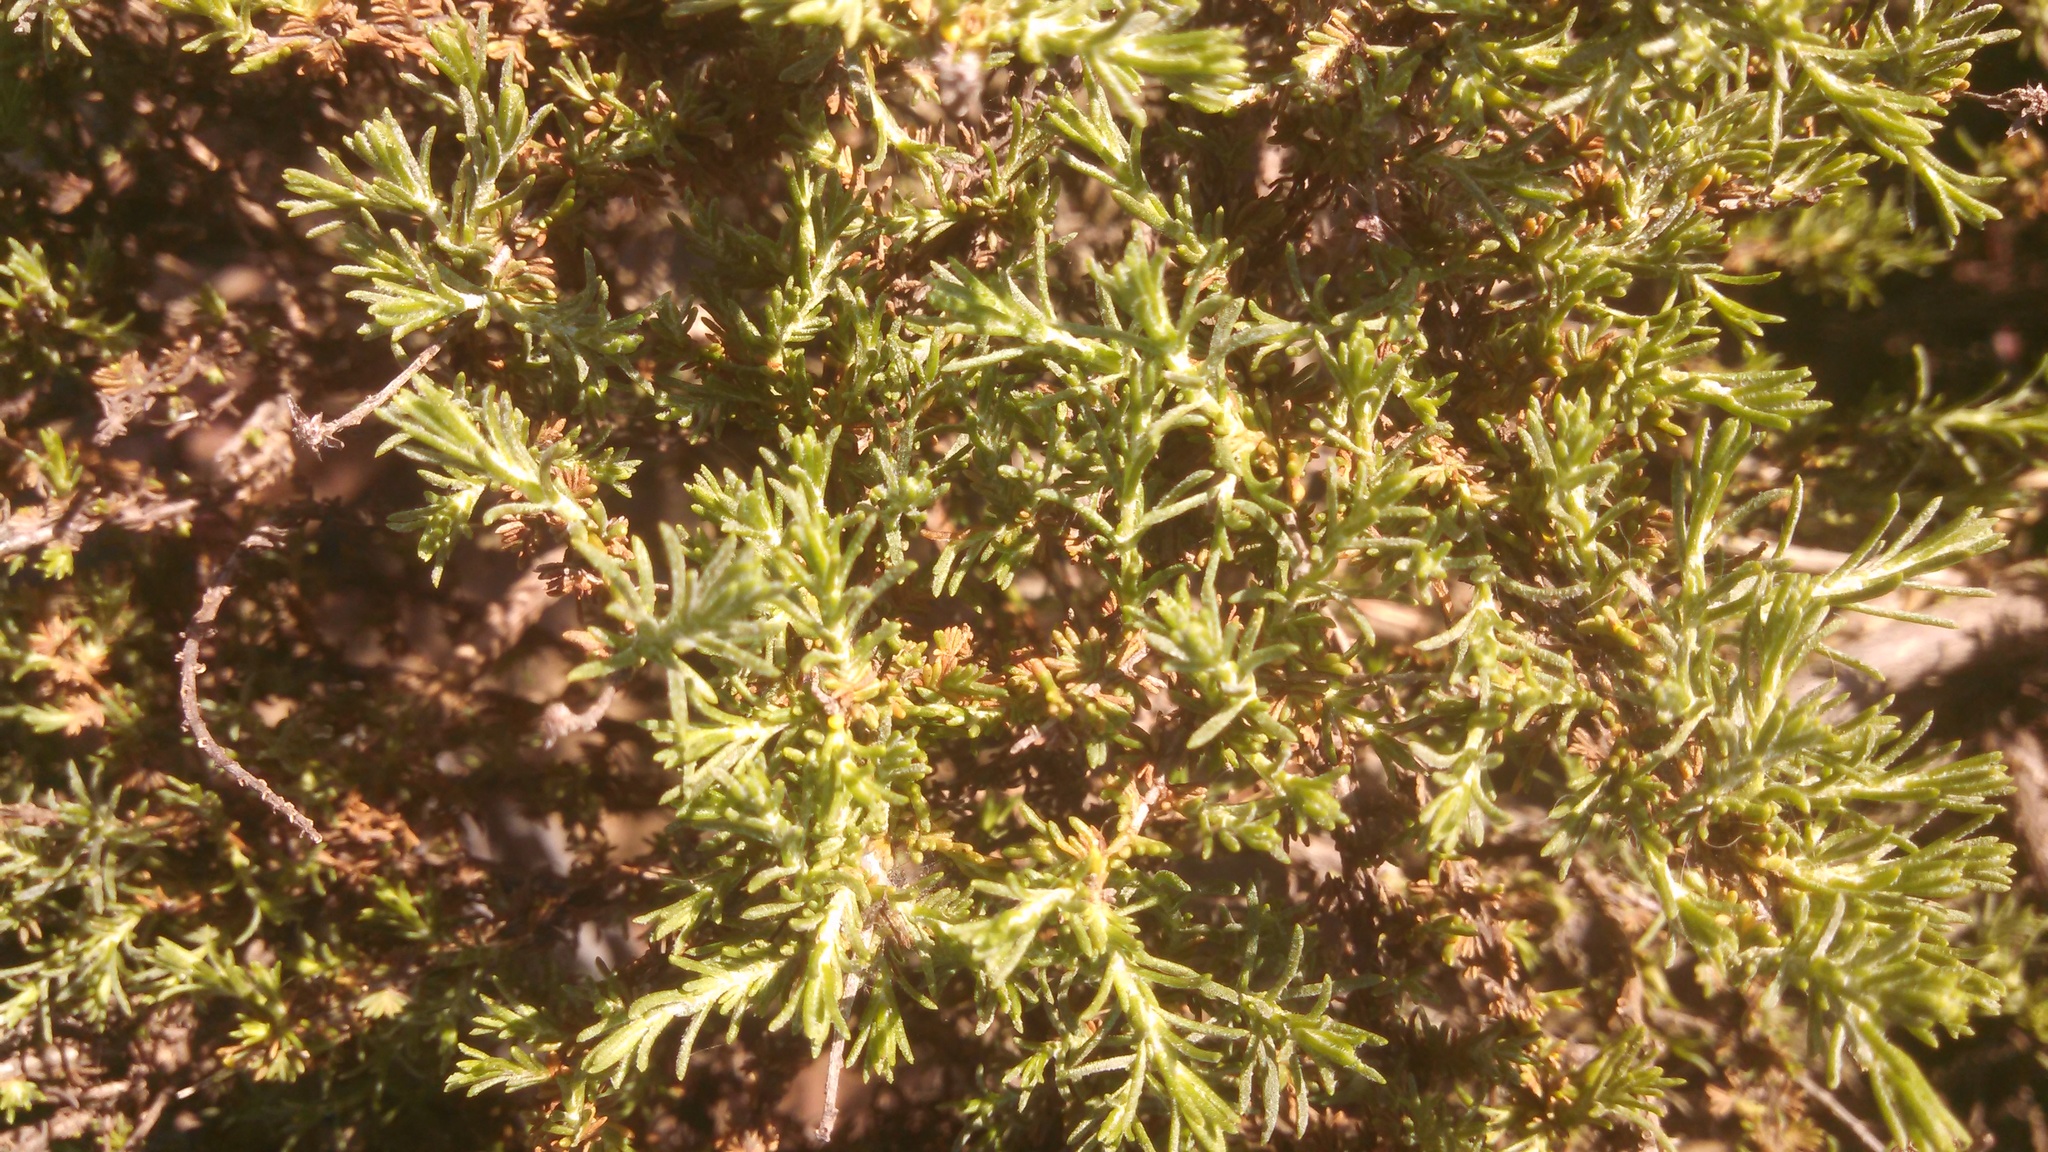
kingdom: Plantae
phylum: Tracheophyta
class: Magnoliopsida
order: Asterales
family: Asteraceae
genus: Ericameria
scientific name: Ericameria ericoides
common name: California goldenbush
